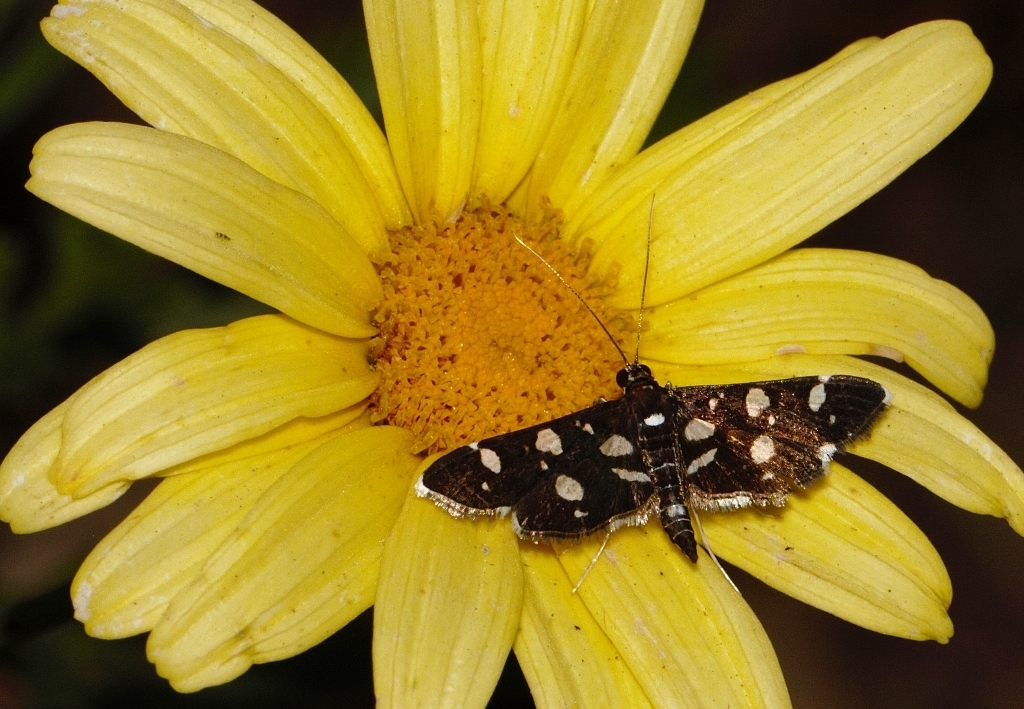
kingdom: Animalia
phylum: Arthropoda
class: Insecta
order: Lepidoptera
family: Crambidae
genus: Bocchoris
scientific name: Bocchoris inspersalis
